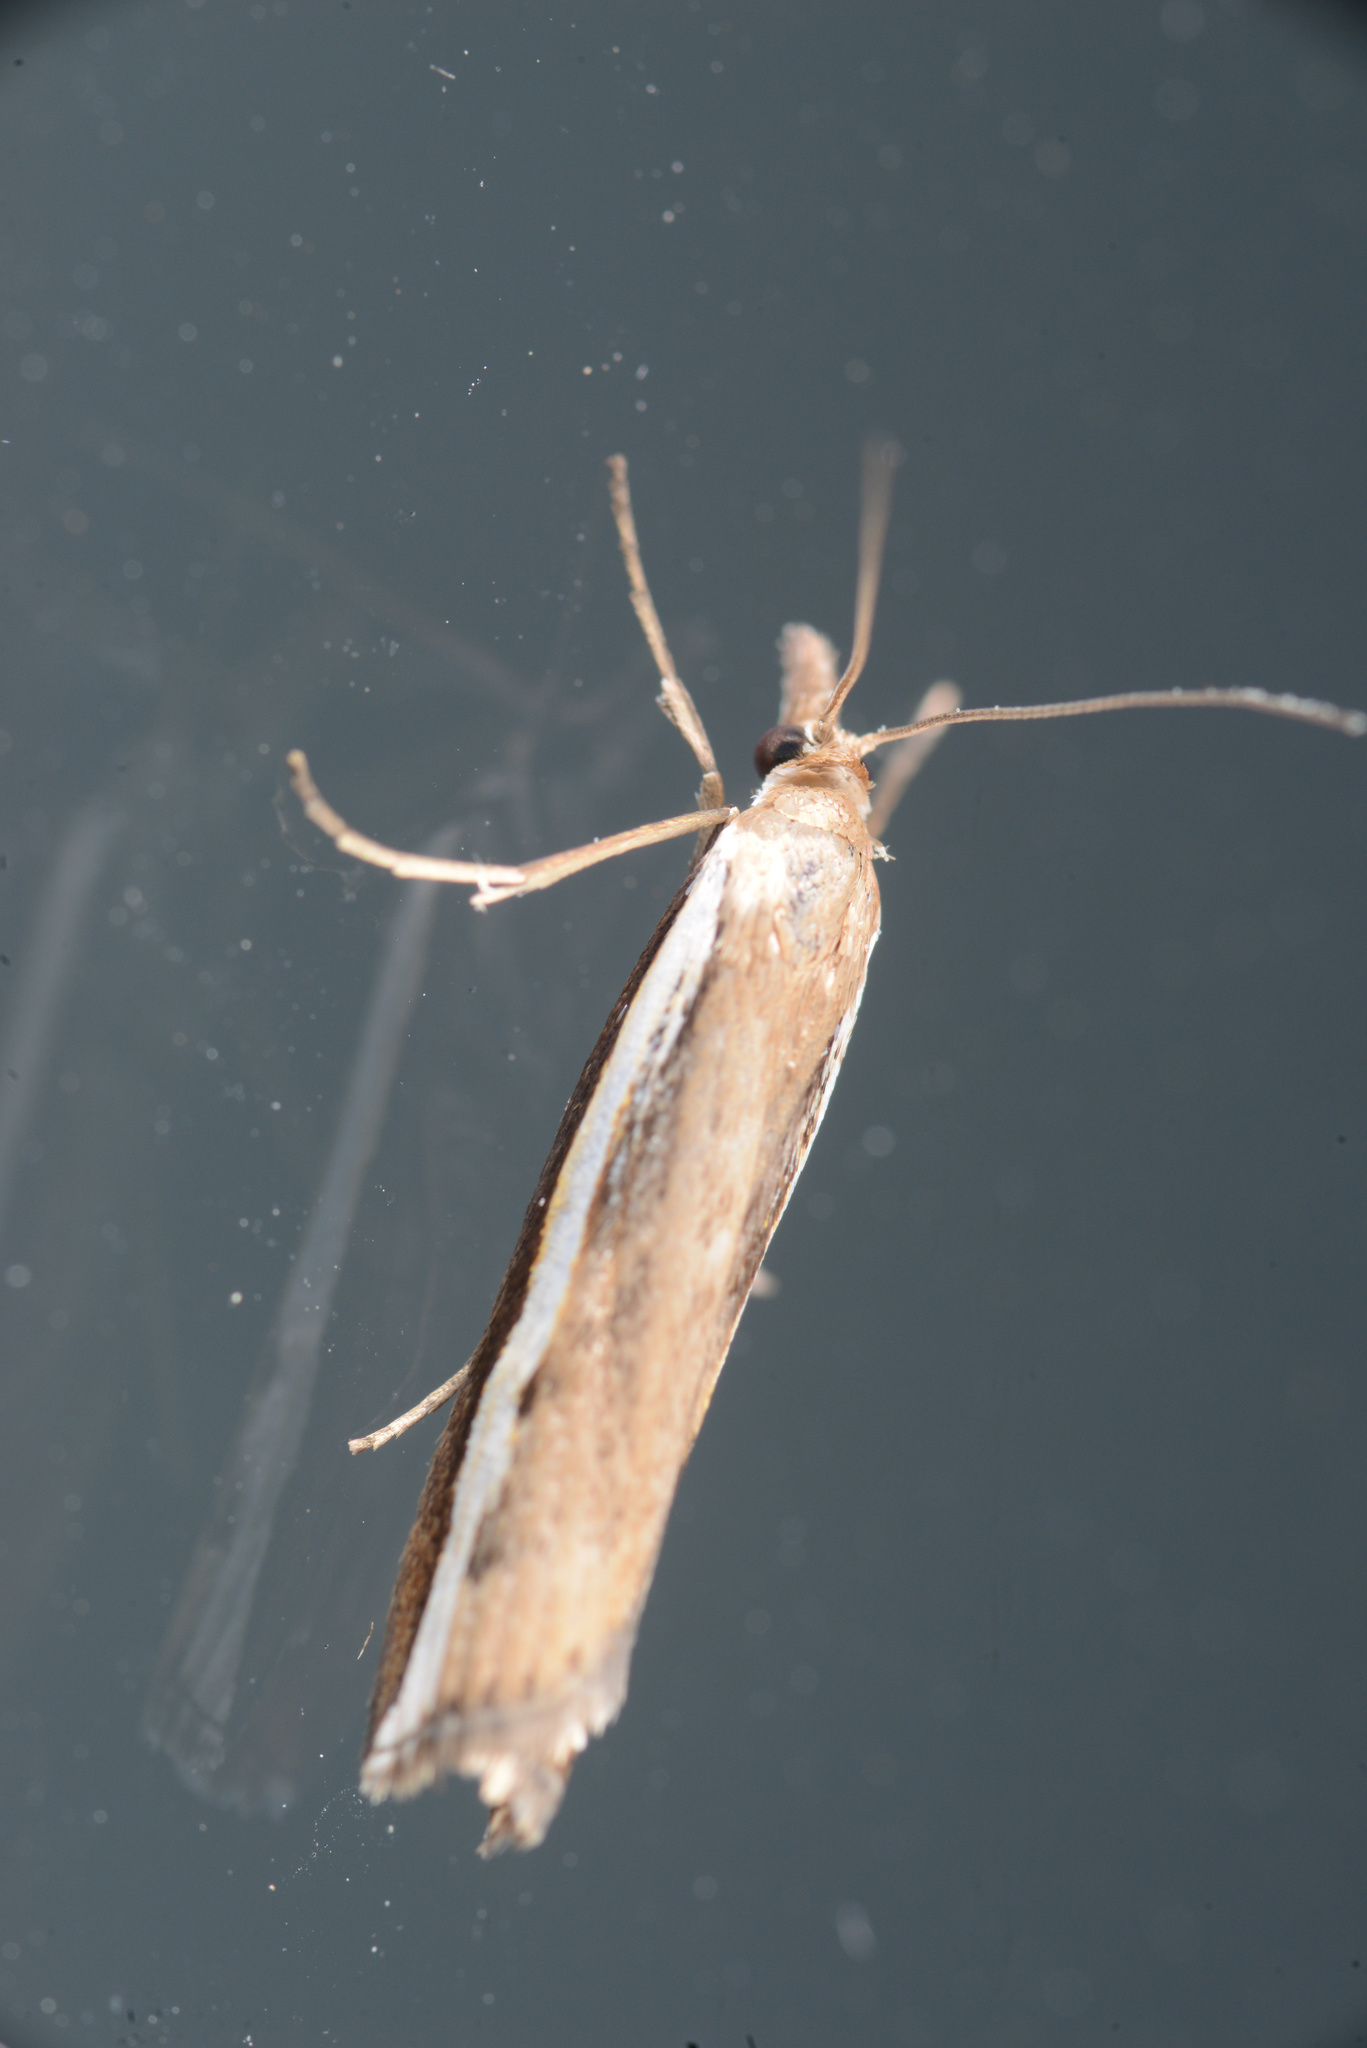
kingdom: Animalia
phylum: Arthropoda
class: Insecta
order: Lepidoptera
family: Crambidae
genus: Orocrambus
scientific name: Orocrambus flexuosellus
